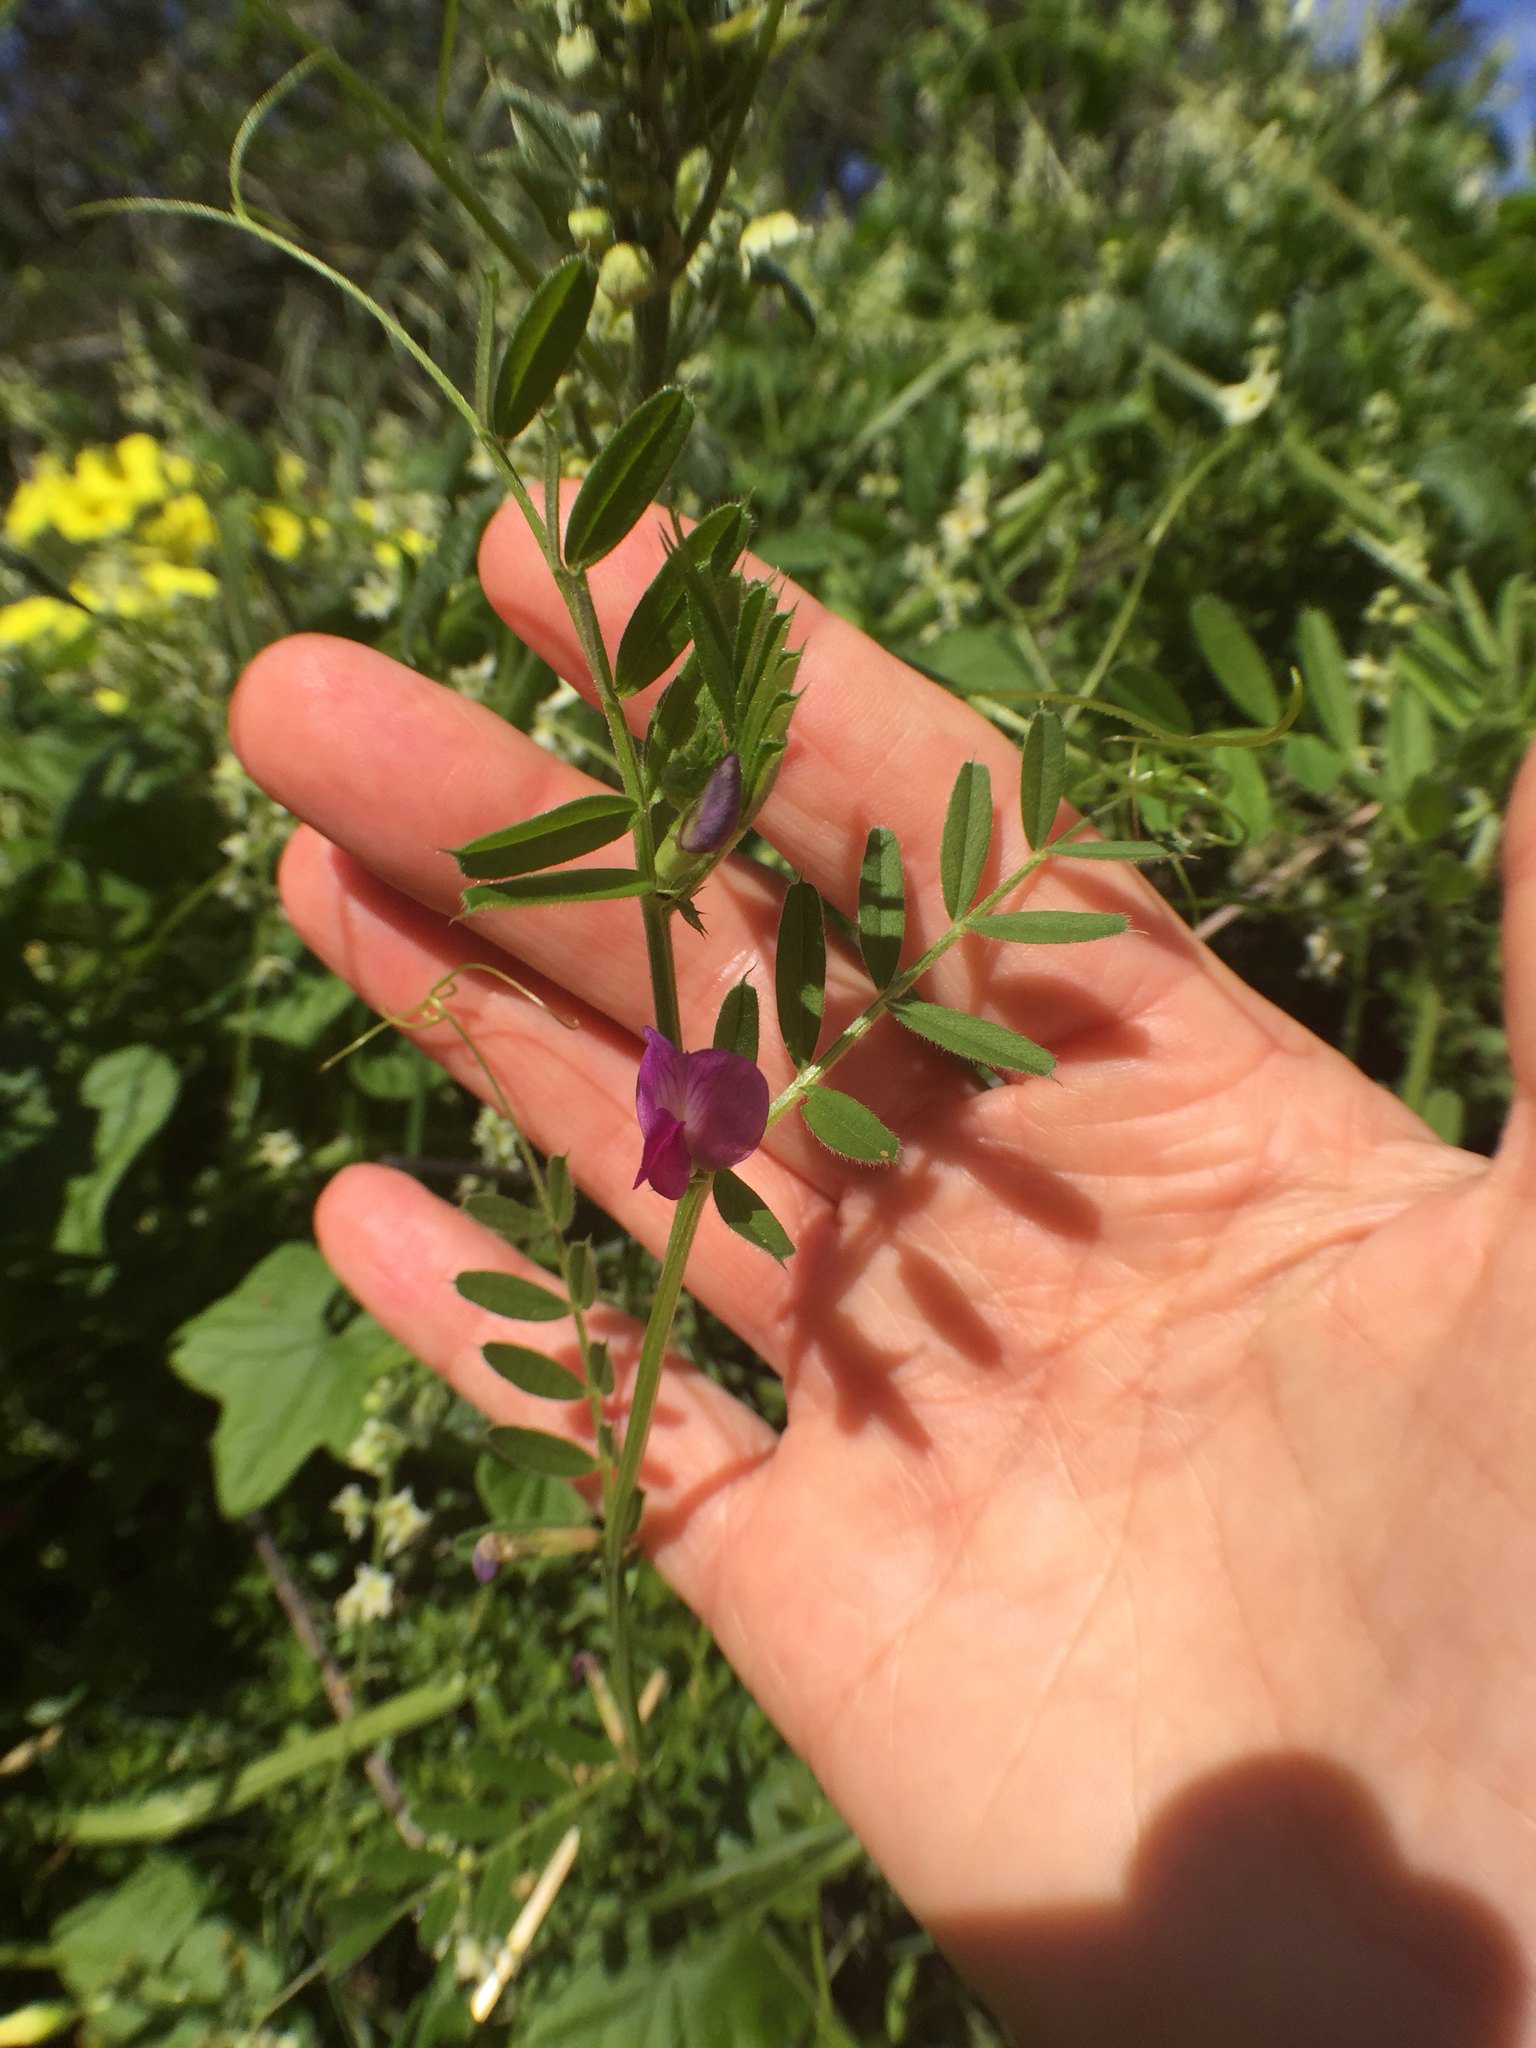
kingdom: Plantae
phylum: Tracheophyta
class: Magnoliopsida
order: Fabales
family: Fabaceae
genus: Vicia
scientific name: Vicia sativa
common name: Garden vetch
